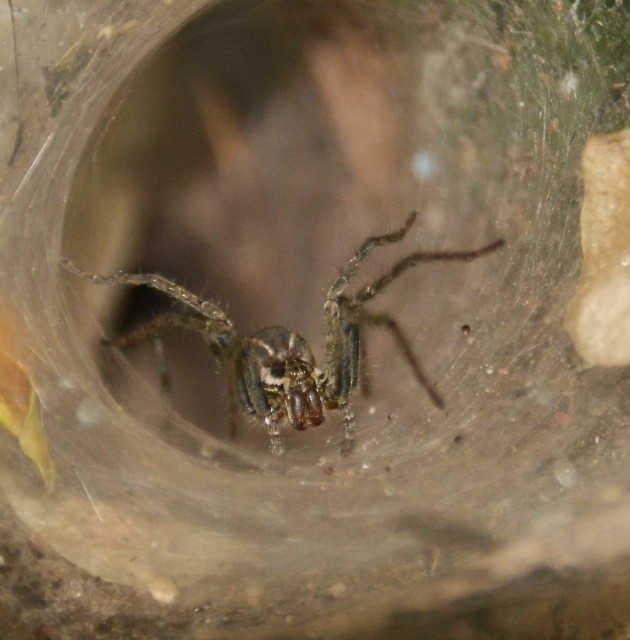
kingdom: Animalia
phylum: Arthropoda
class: Arachnida
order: Araneae
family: Lycosidae
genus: Aglaoctenus
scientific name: Aglaoctenus lagotis
